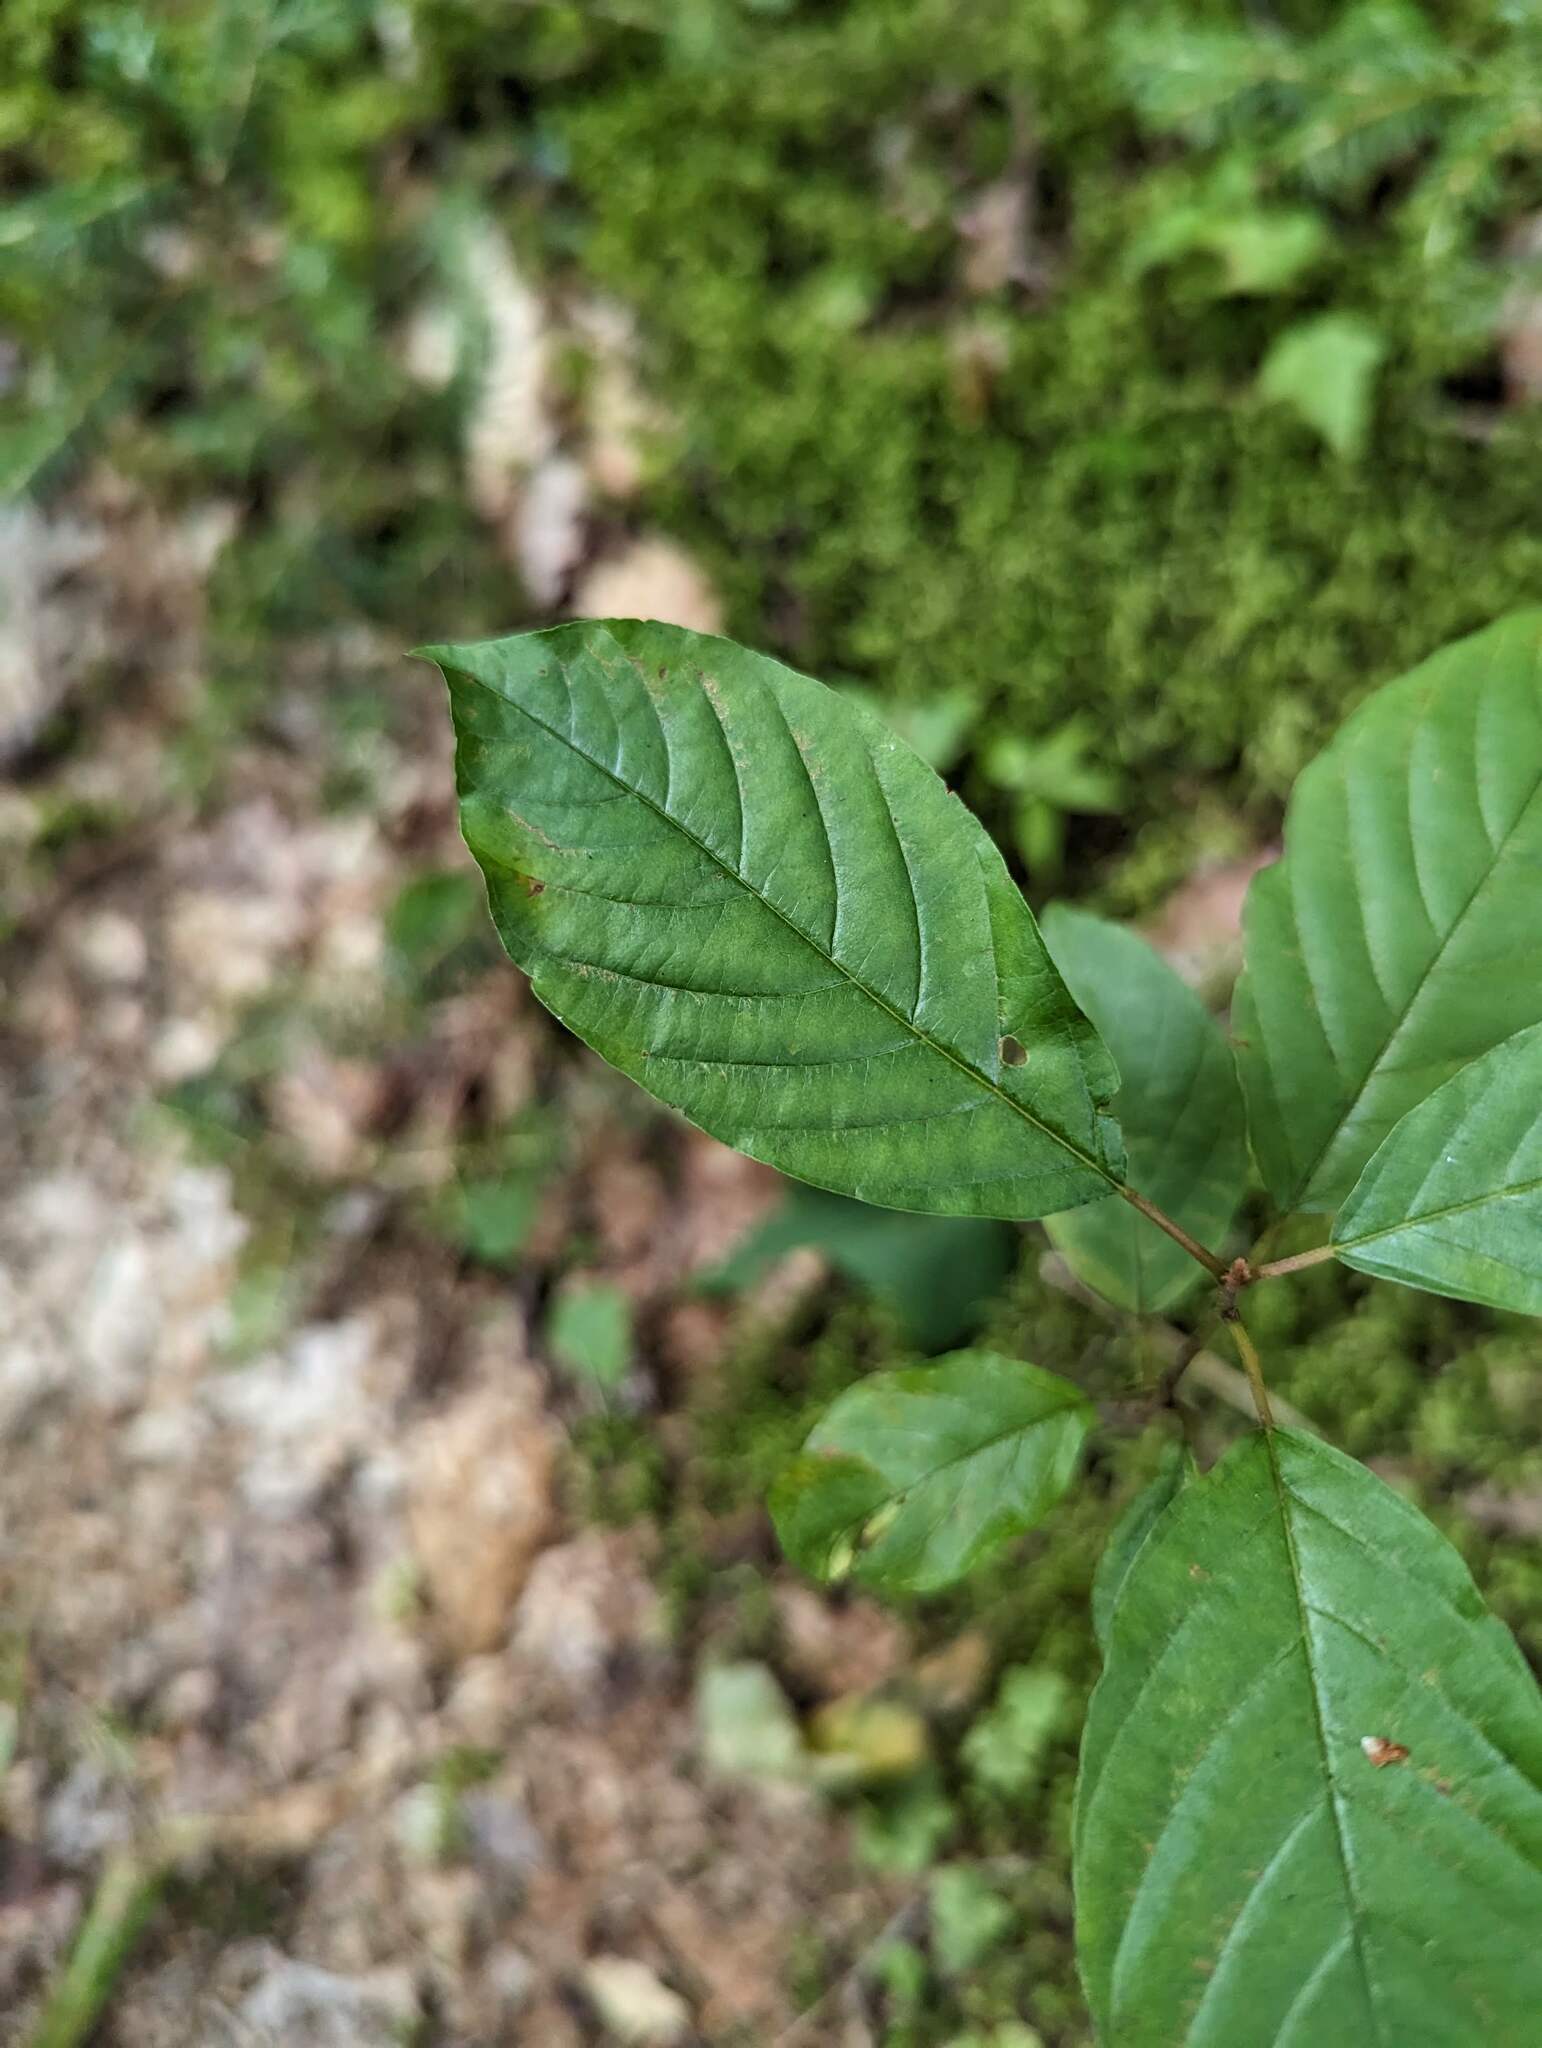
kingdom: Plantae
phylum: Tracheophyta
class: Magnoliopsida
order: Rosales
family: Rhamnaceae
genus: Frangula
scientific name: Frangula alnus
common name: Alder buckthorn
